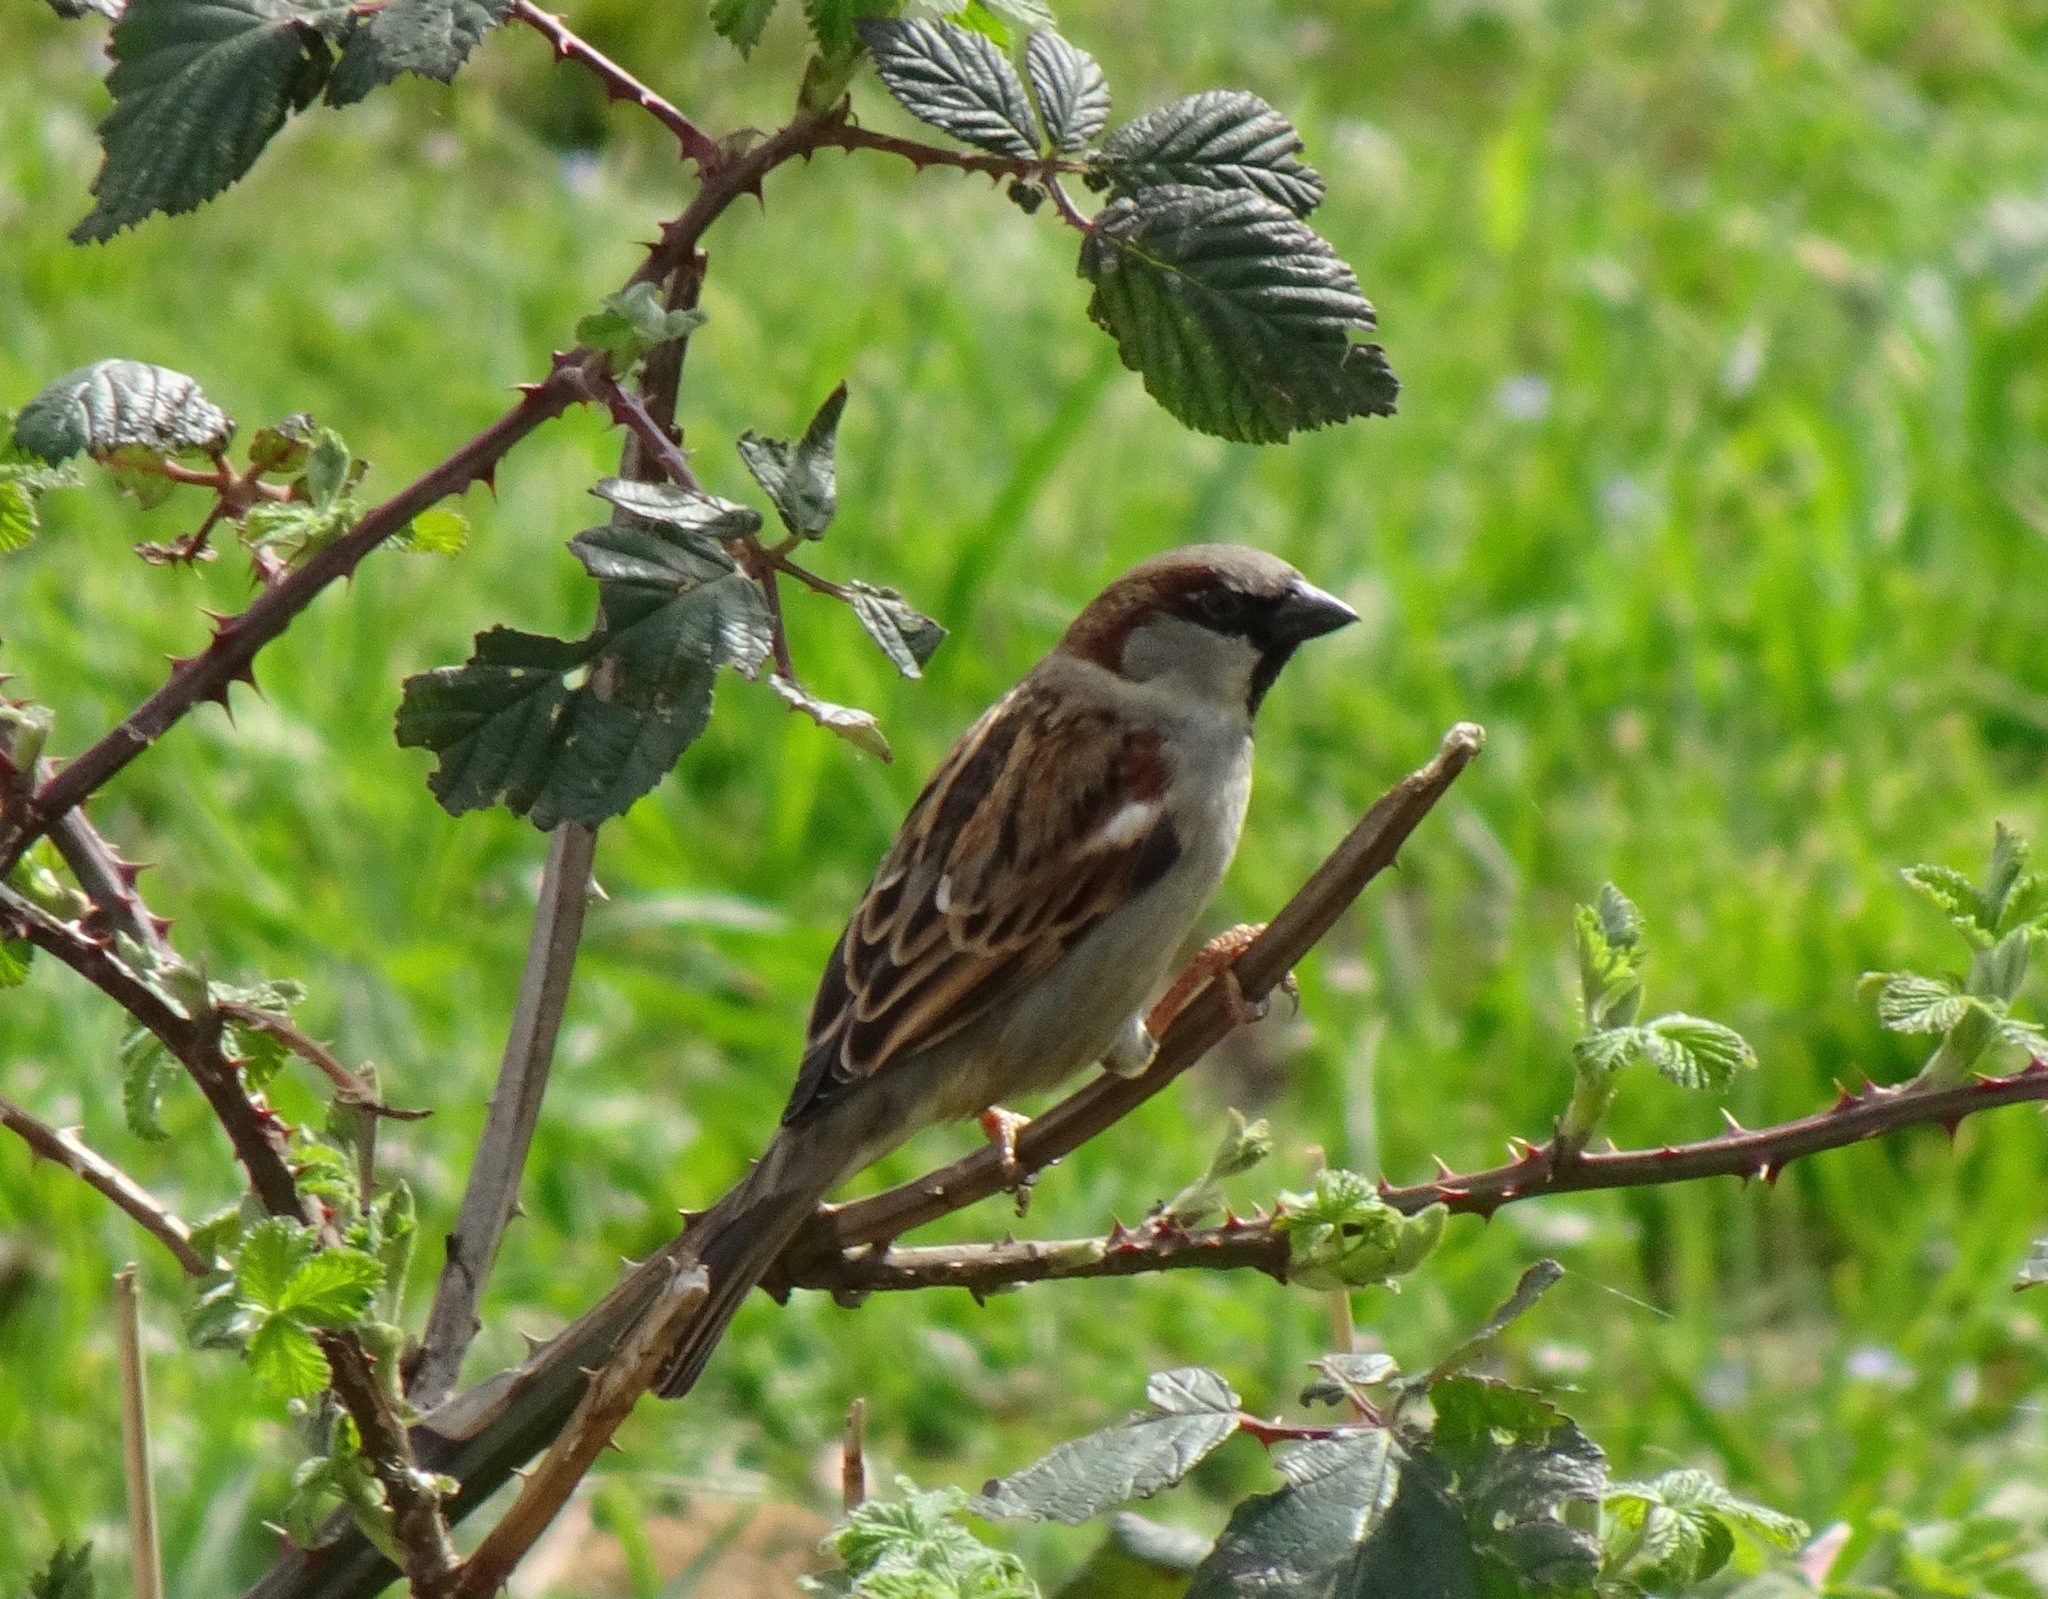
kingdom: Animalia
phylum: Chordata
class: Aves
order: Passeriformes
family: Passeridae
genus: Passer
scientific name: Passer domesticus
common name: House sparrow
